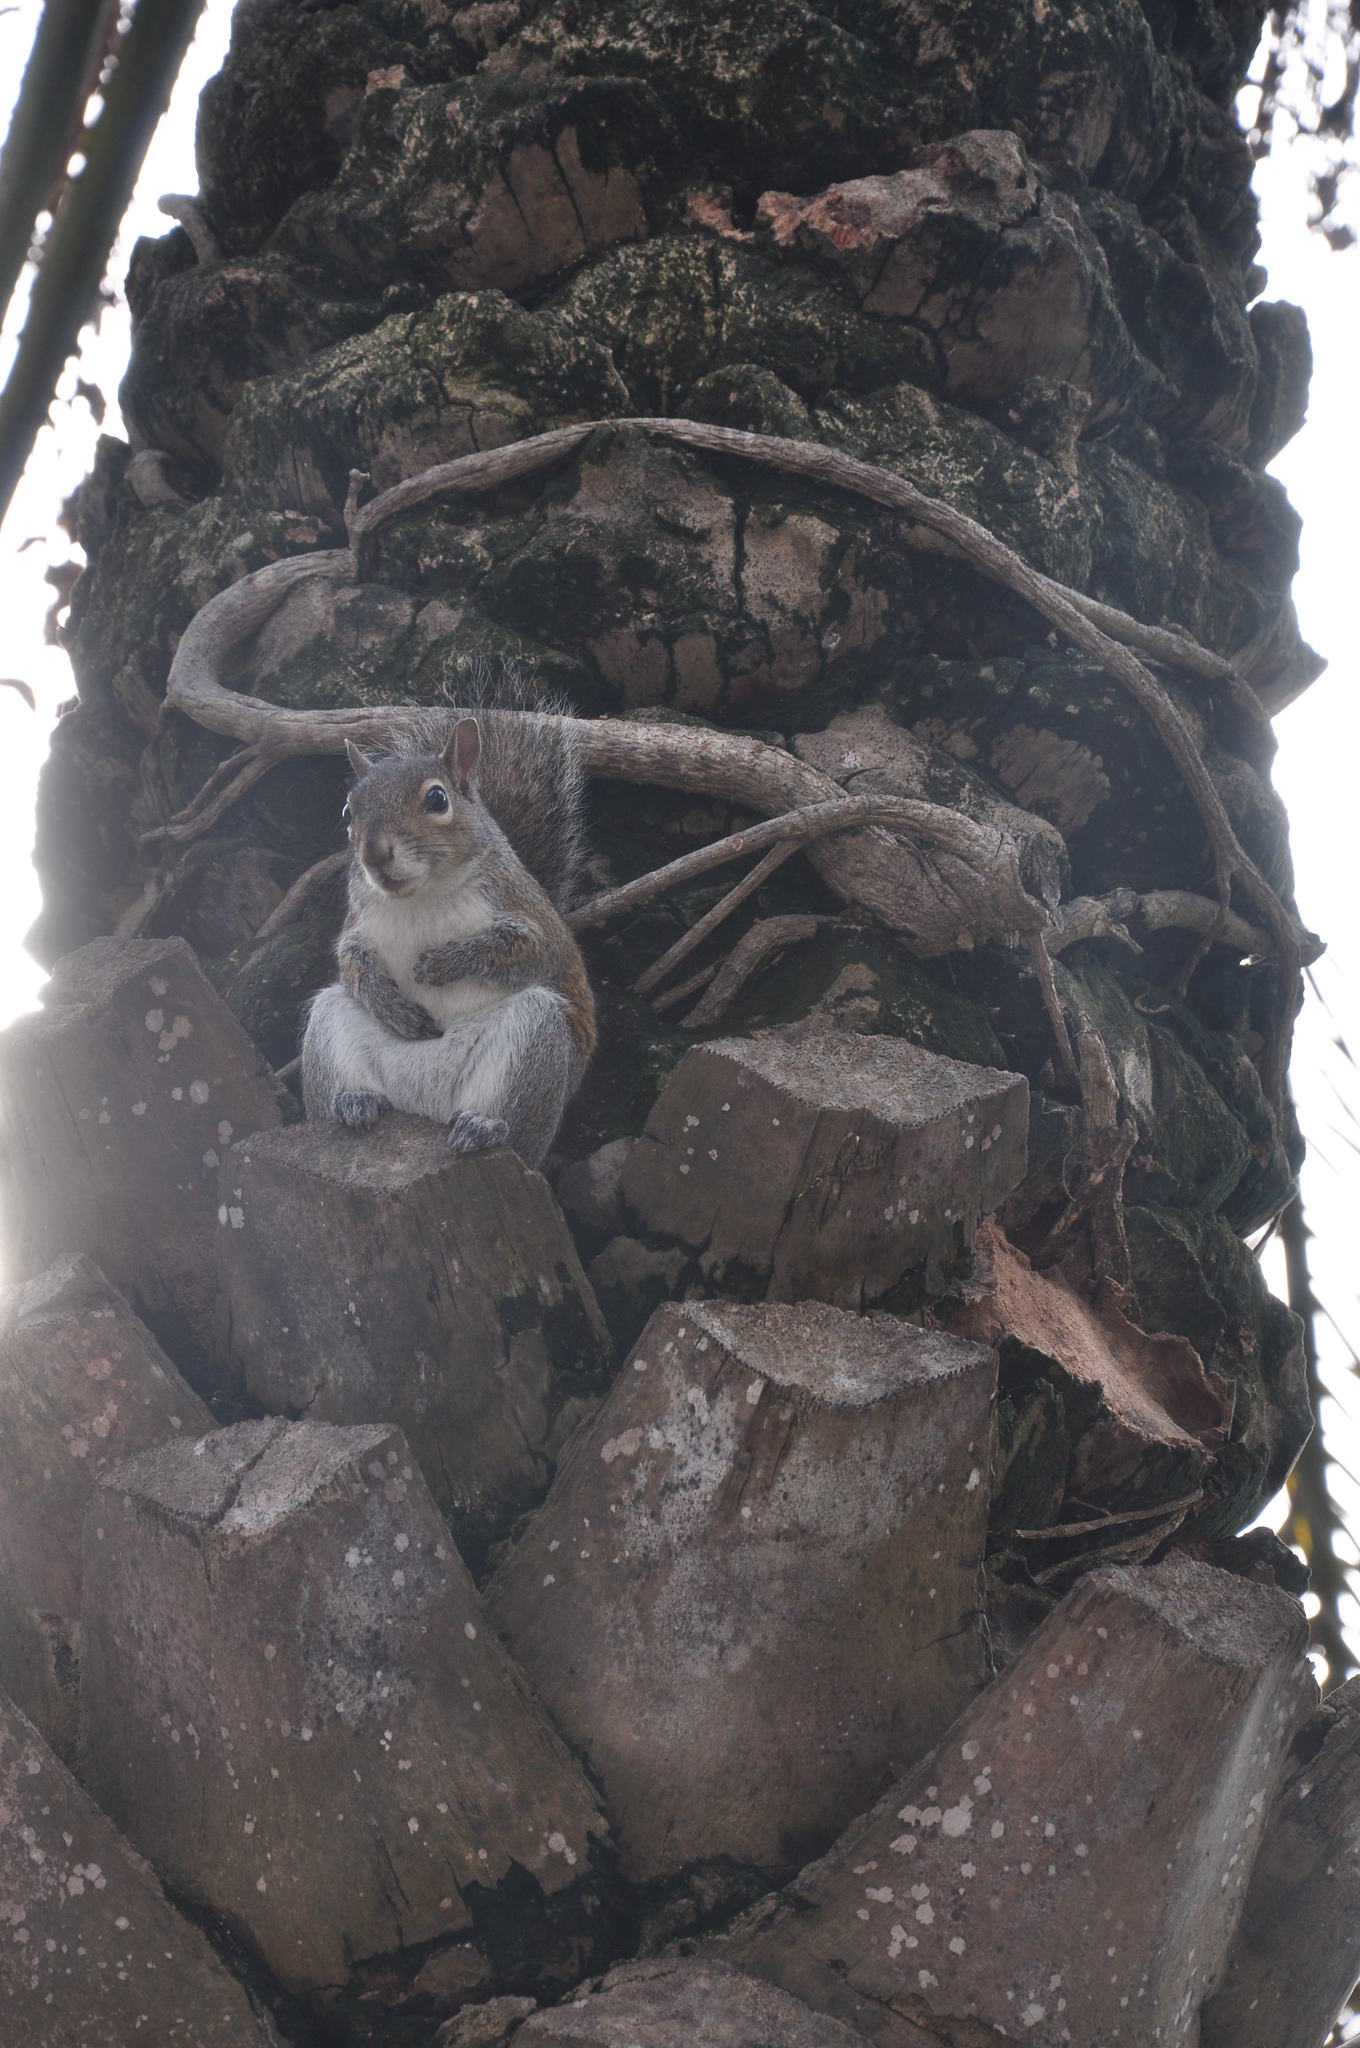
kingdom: Animalia
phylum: Chordata
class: Mammalia
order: Rodentia
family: Sciuridae
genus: Sciurus
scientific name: Sciurus carolinensis
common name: Eastern gray squirrel
